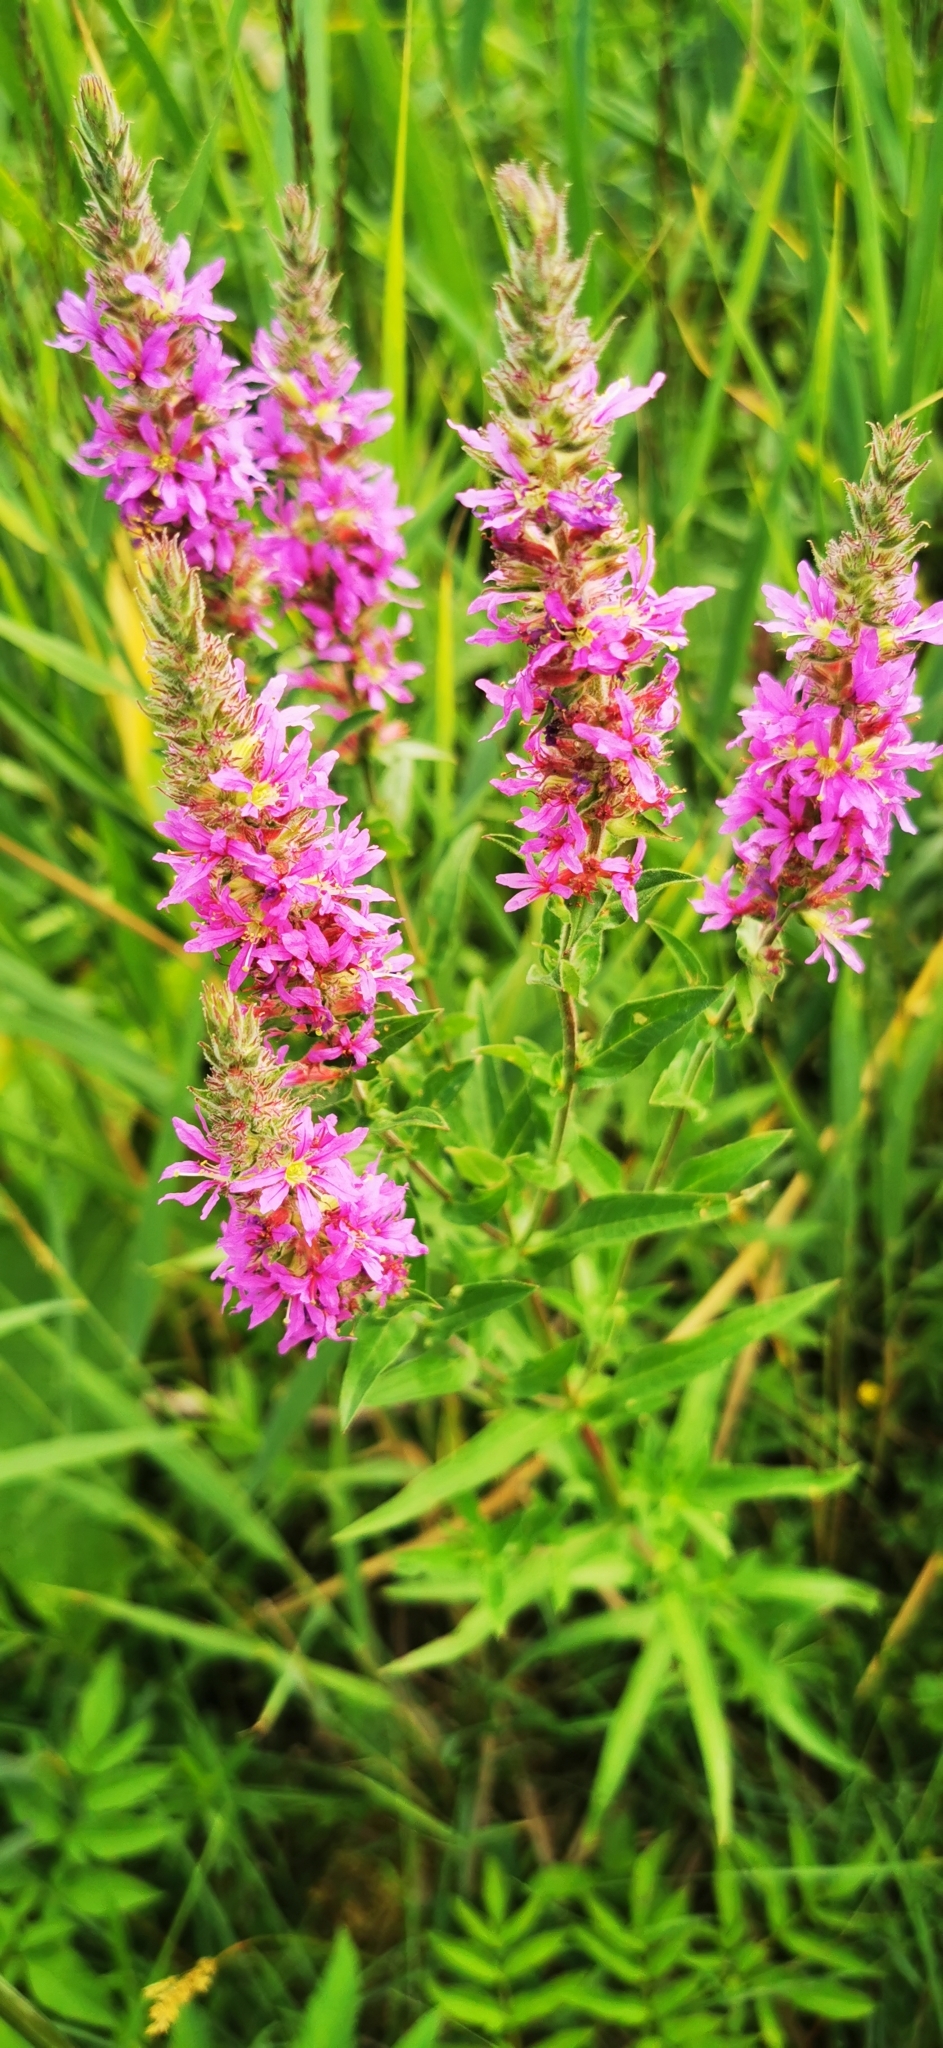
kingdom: Plantae
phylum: Tracheophyta
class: Magnoliopsida
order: Myrtales
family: Lythraceae
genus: Lythrum
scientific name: Lythrum salicaria
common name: Purple loosestrife
